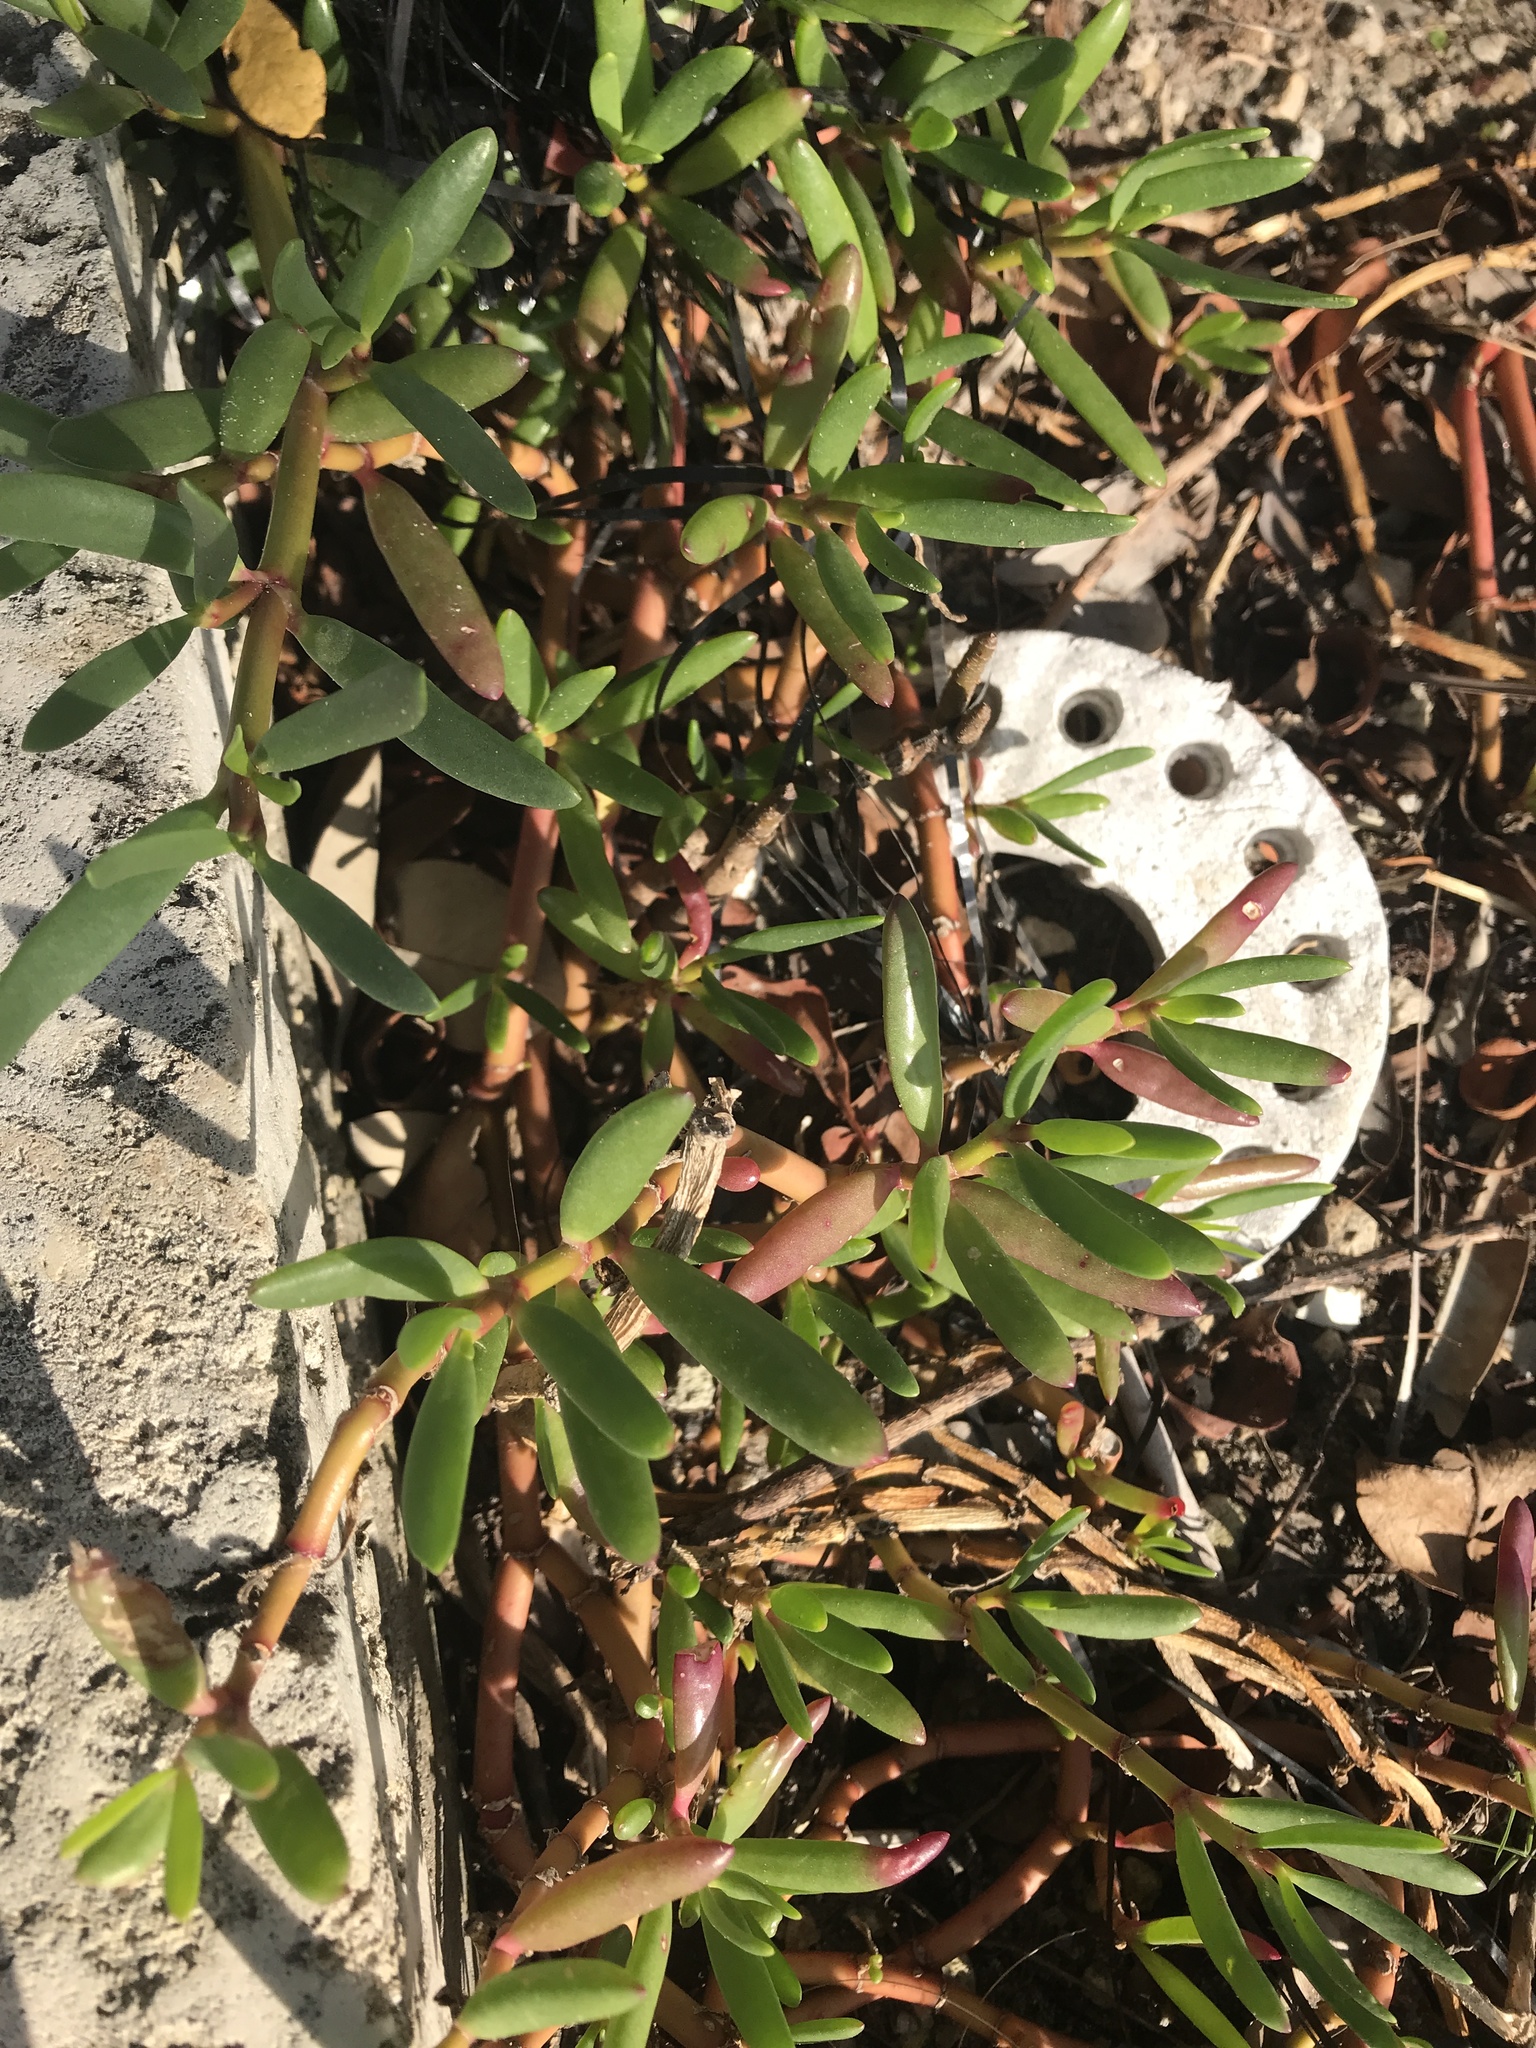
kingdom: Plantae
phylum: Tracheophyta
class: Magnoliopsida
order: Caryophyllales
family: Aizoaceae
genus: Sesuvium
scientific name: Sesuvium portulacastrum
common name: Sea-purslane
